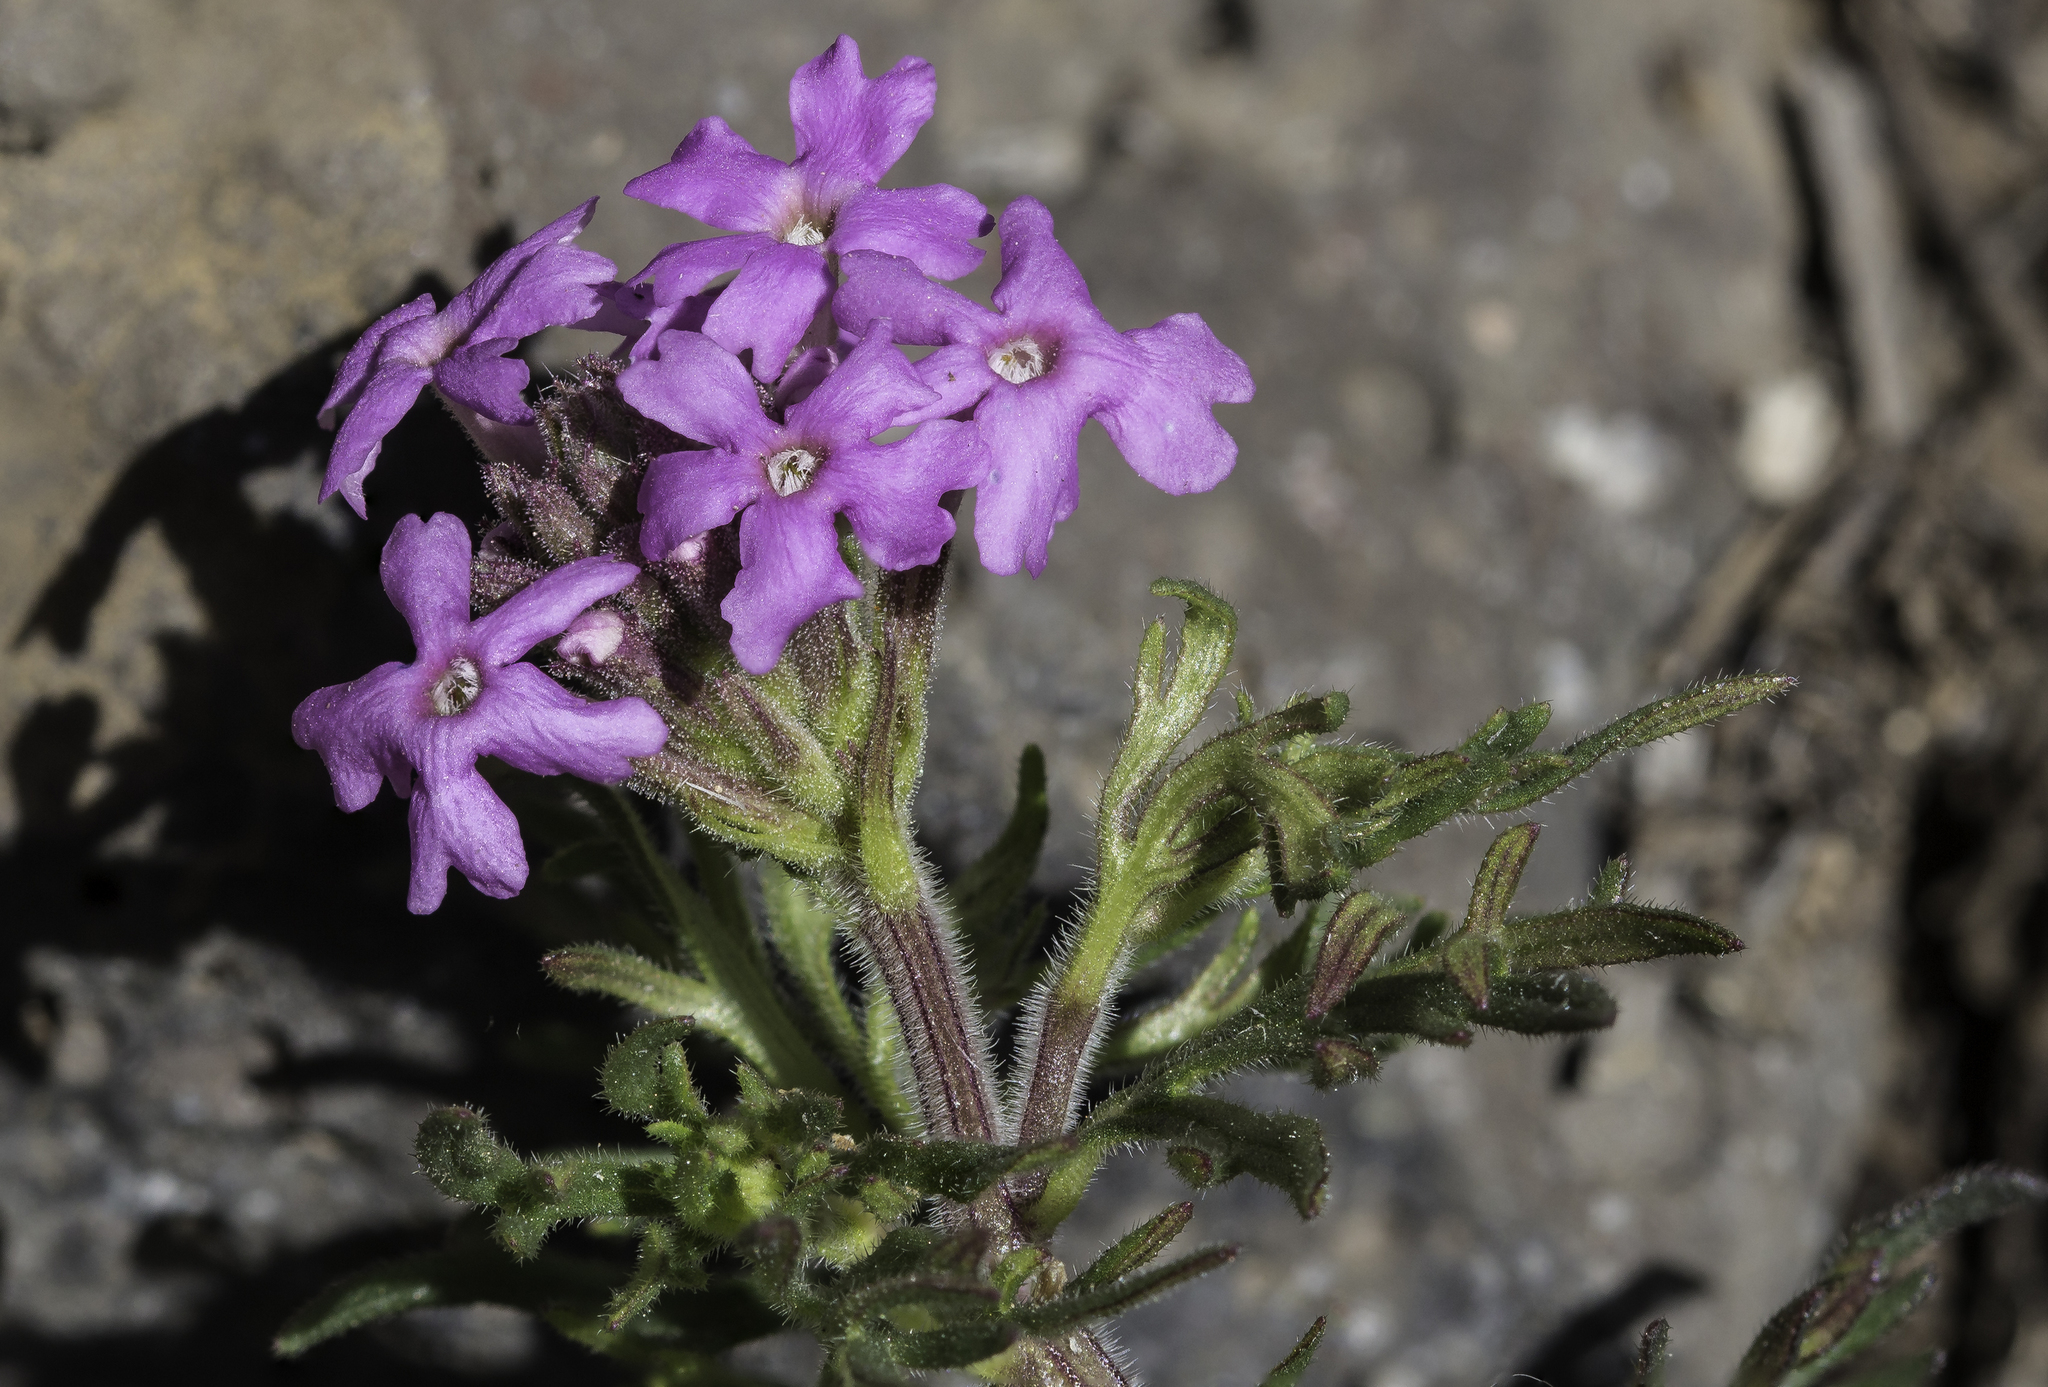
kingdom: Plantae
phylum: Tracheophyta
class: Magnoliopsida
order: Lamiales
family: Verbenaceae
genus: Verbena
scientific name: Verbena bipinnatifida
